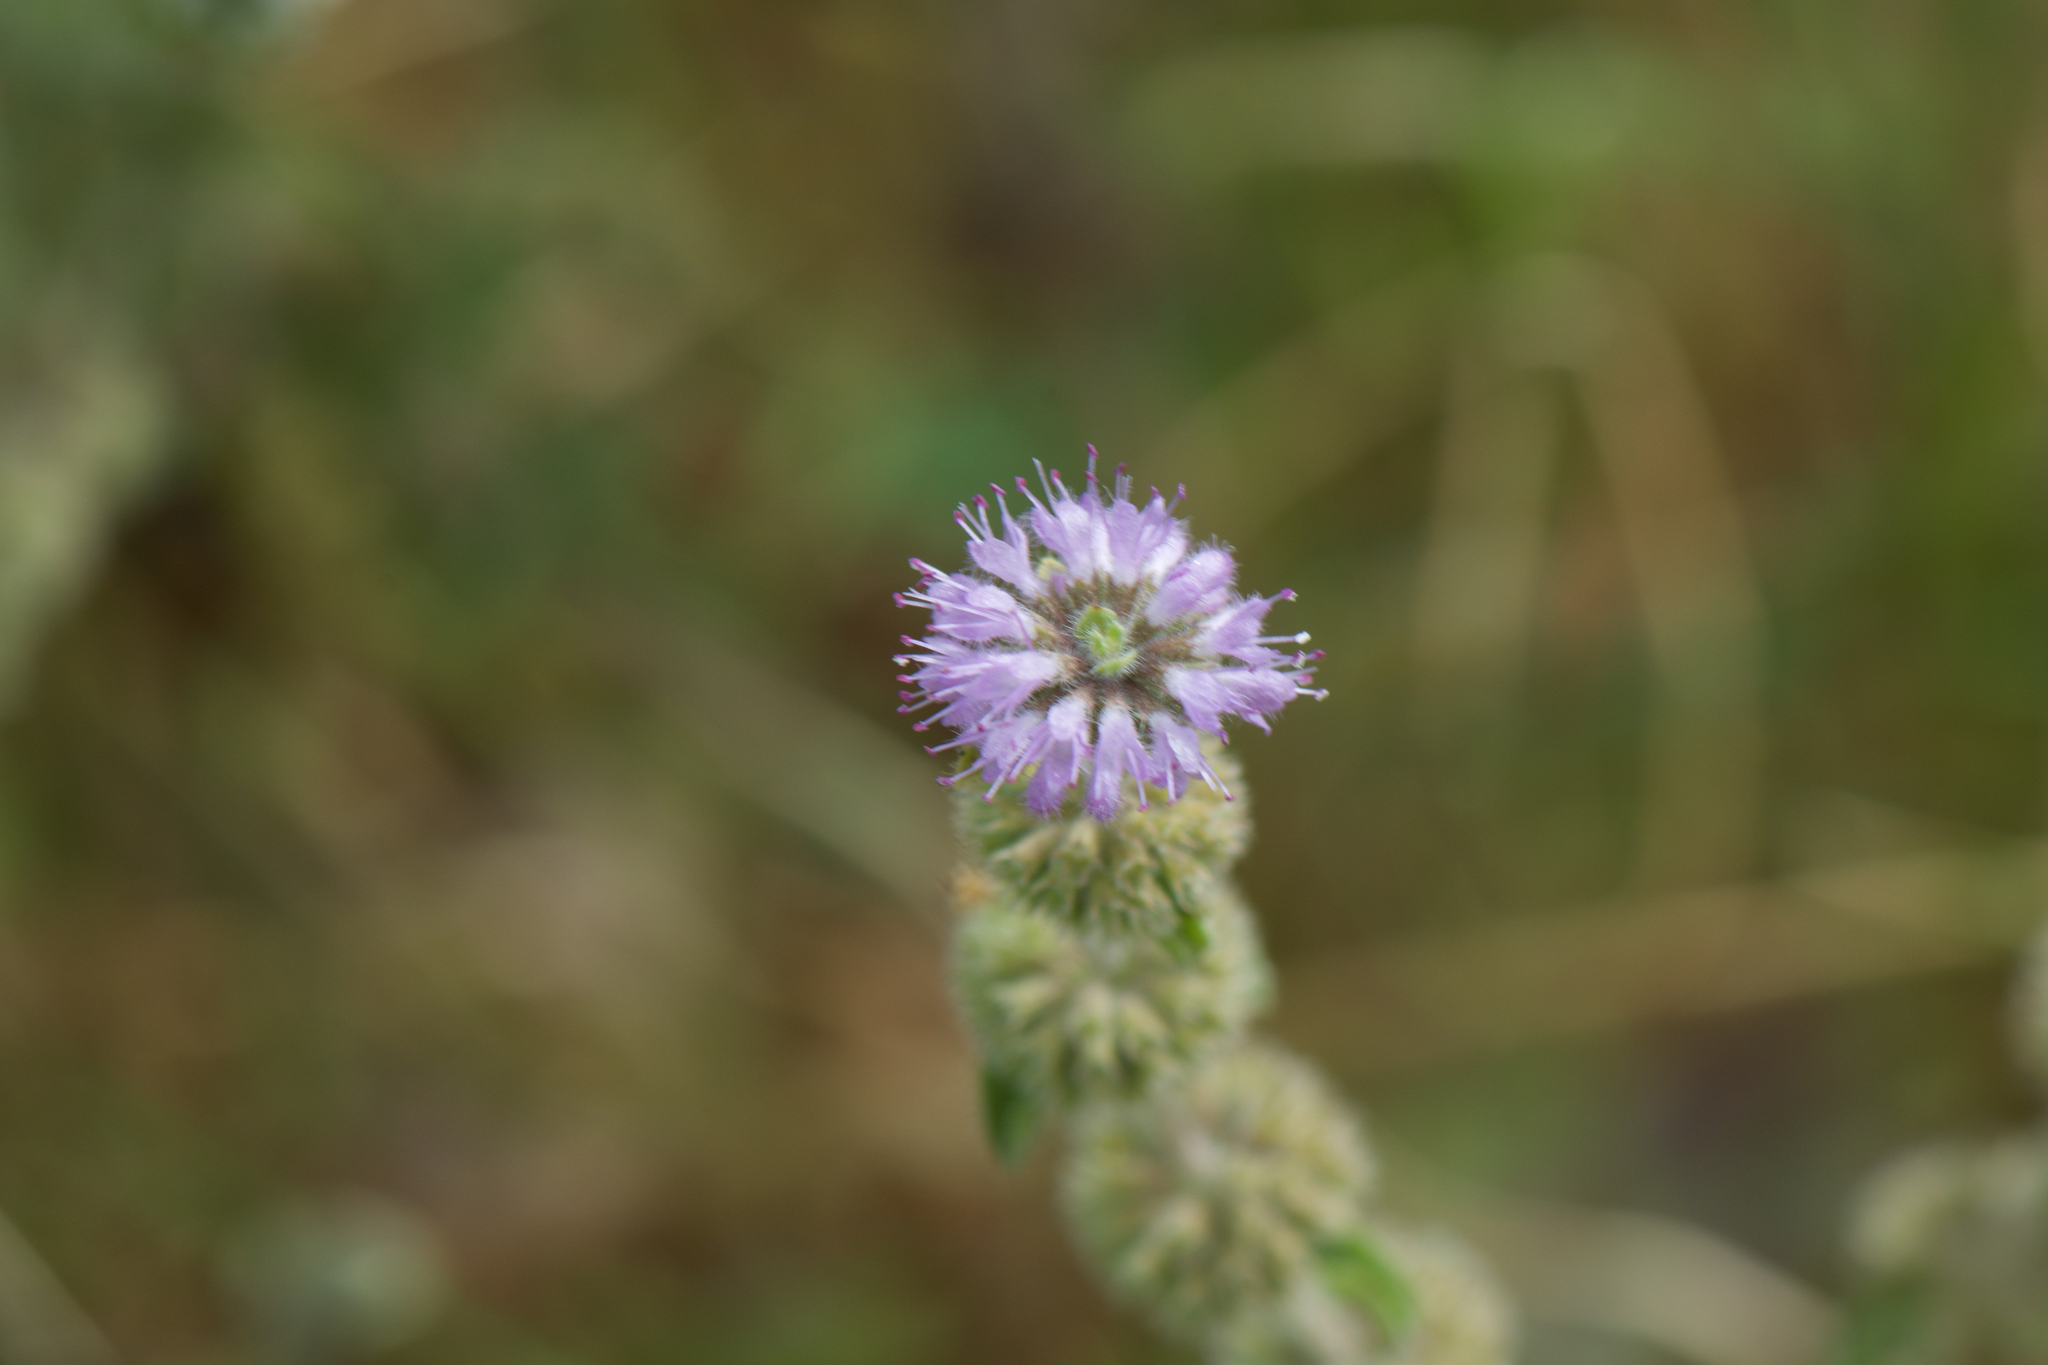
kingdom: Plantae
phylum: Tracheophyta
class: Magnoliopsida
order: Lamiales
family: Lamiaceae
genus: Mentha
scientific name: Mentha pulegium
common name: Pennyroyal
